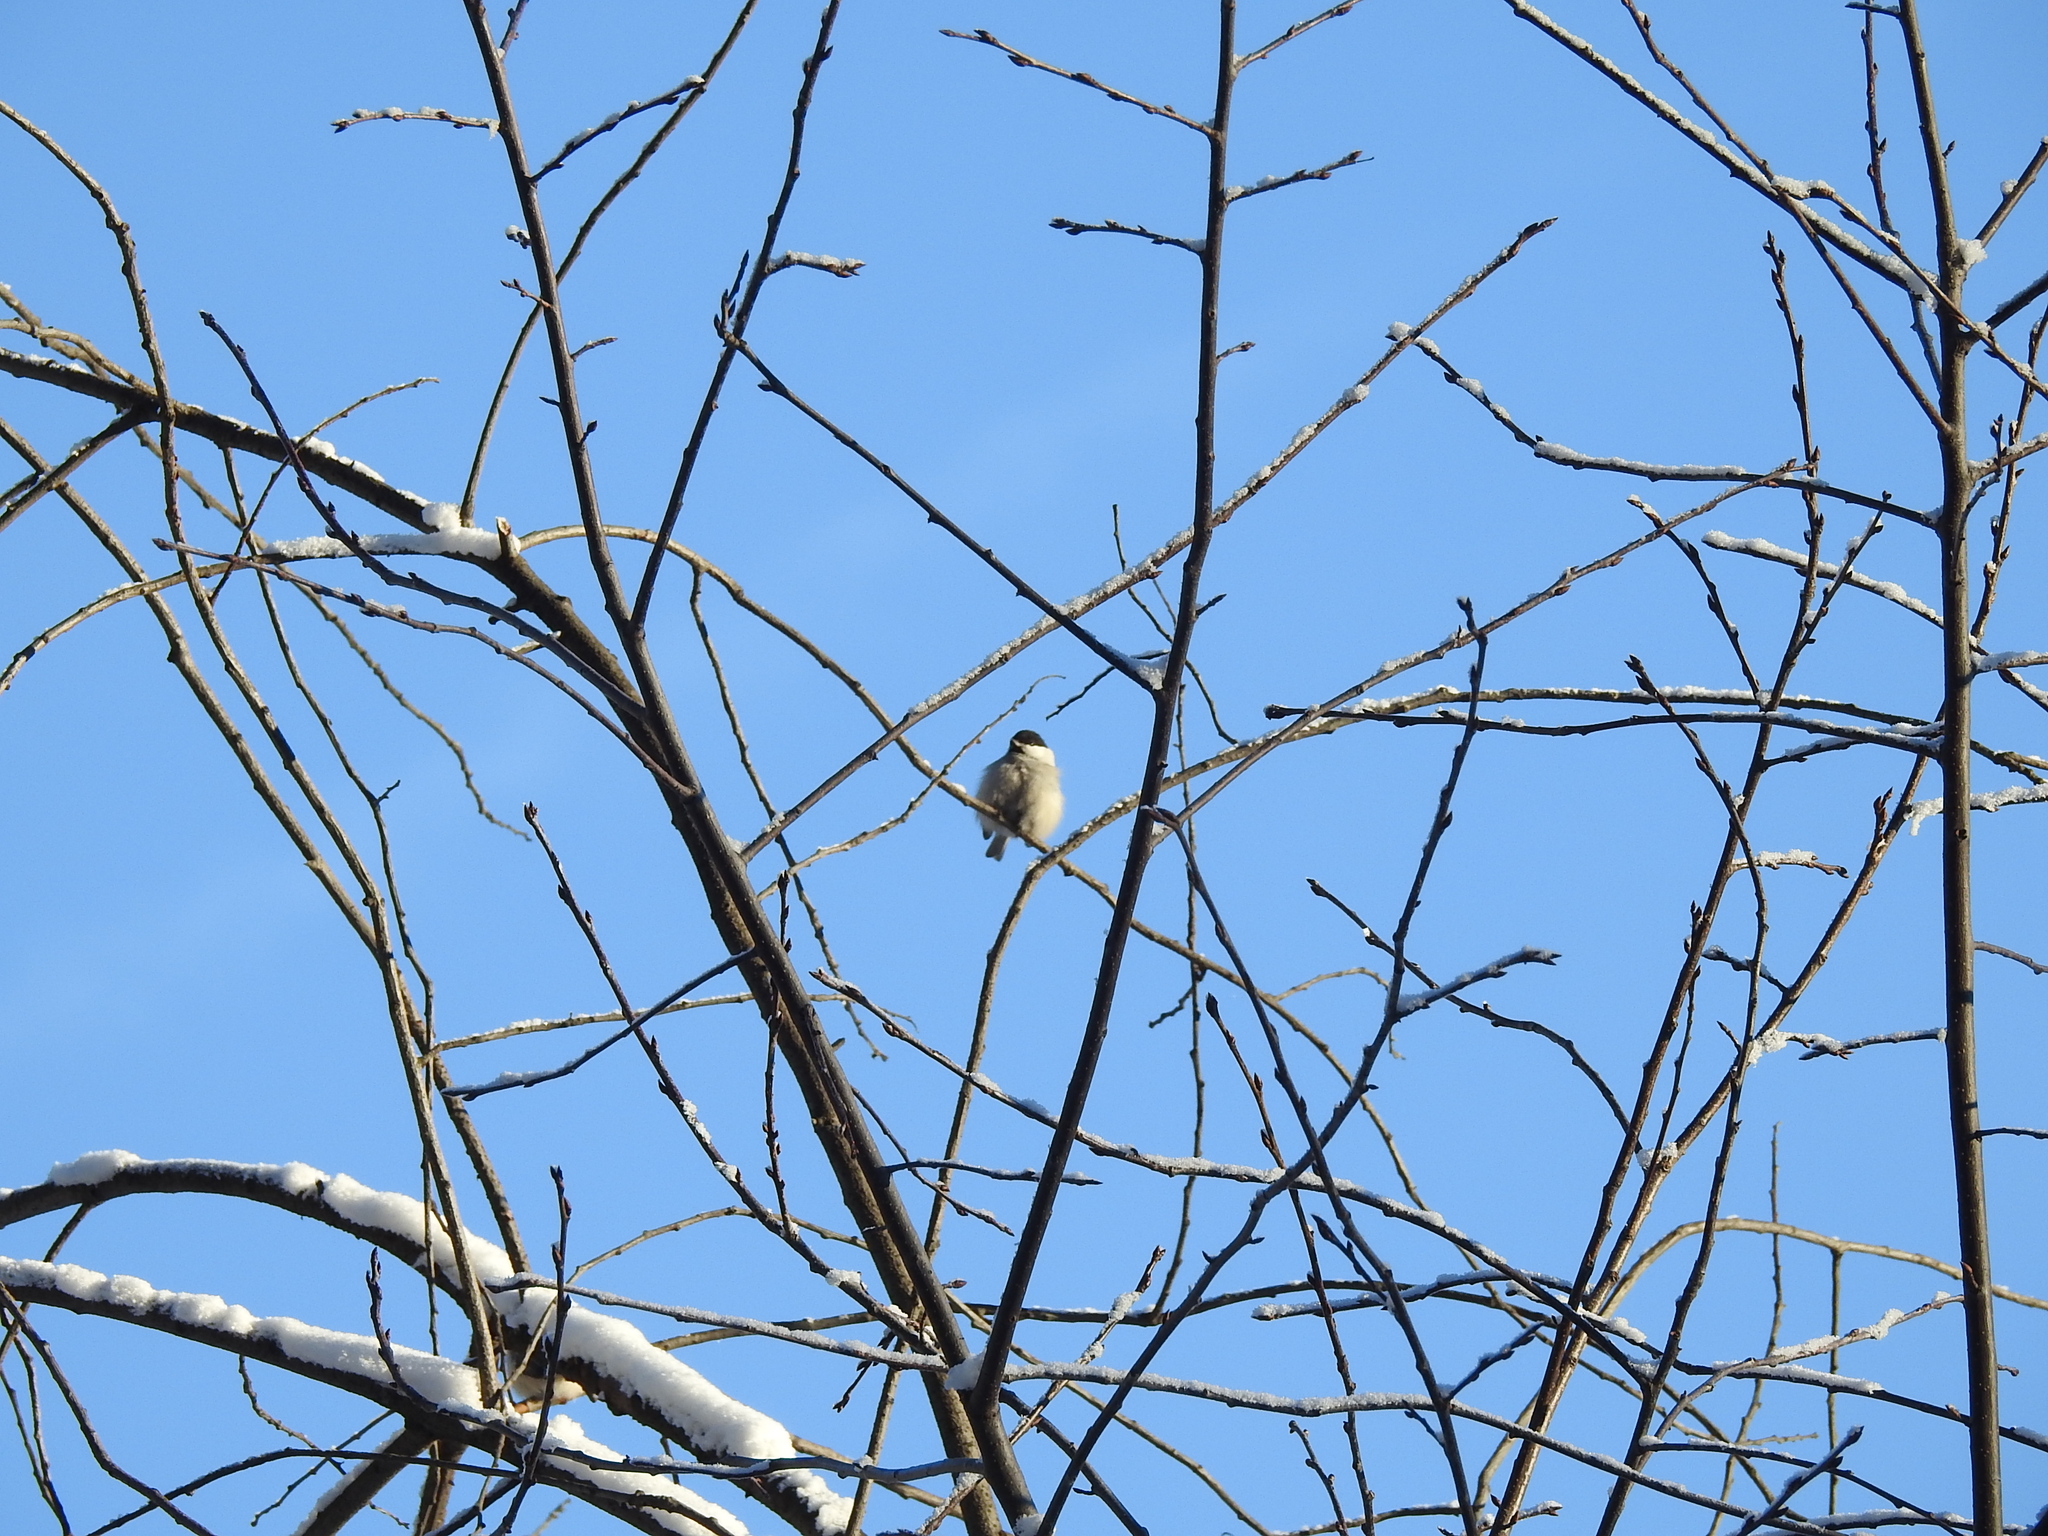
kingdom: Animalia
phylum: Chordata
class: Aves
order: Passeriformes
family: Paridae
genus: Poecile
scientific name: Poecile montanus
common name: Willow tit
